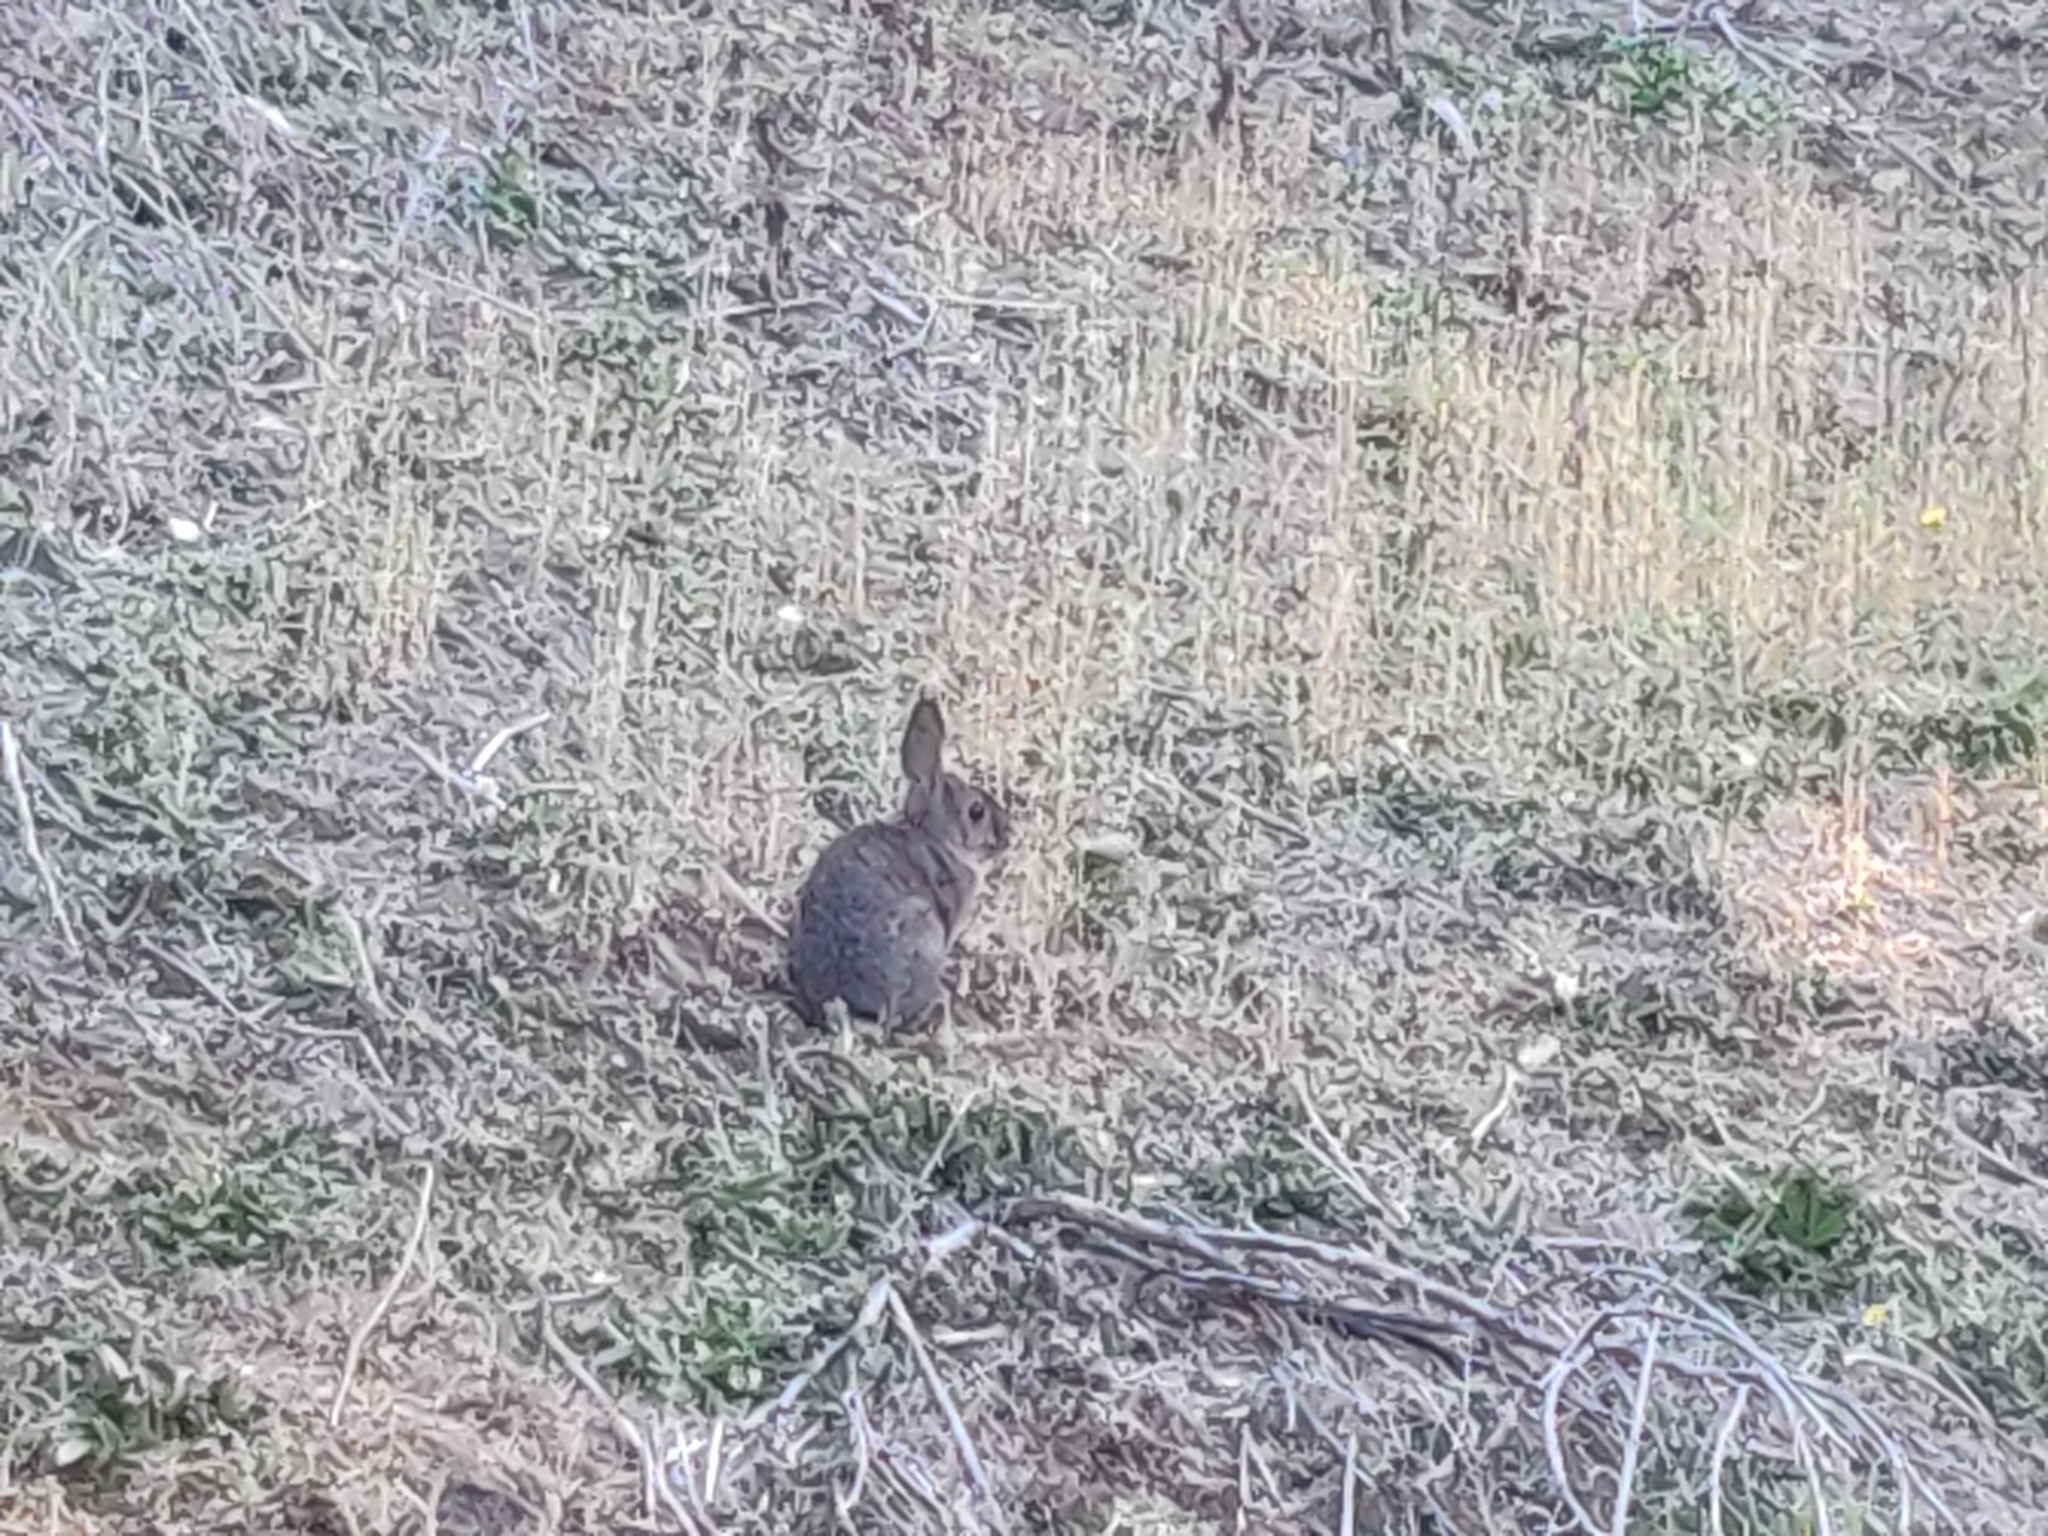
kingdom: Animalia
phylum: Chordata
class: Mammalia
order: Lagomorpha
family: Leporidae
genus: Sylvilagus
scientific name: Sylvilagus bachmani
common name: Brush rabbit
